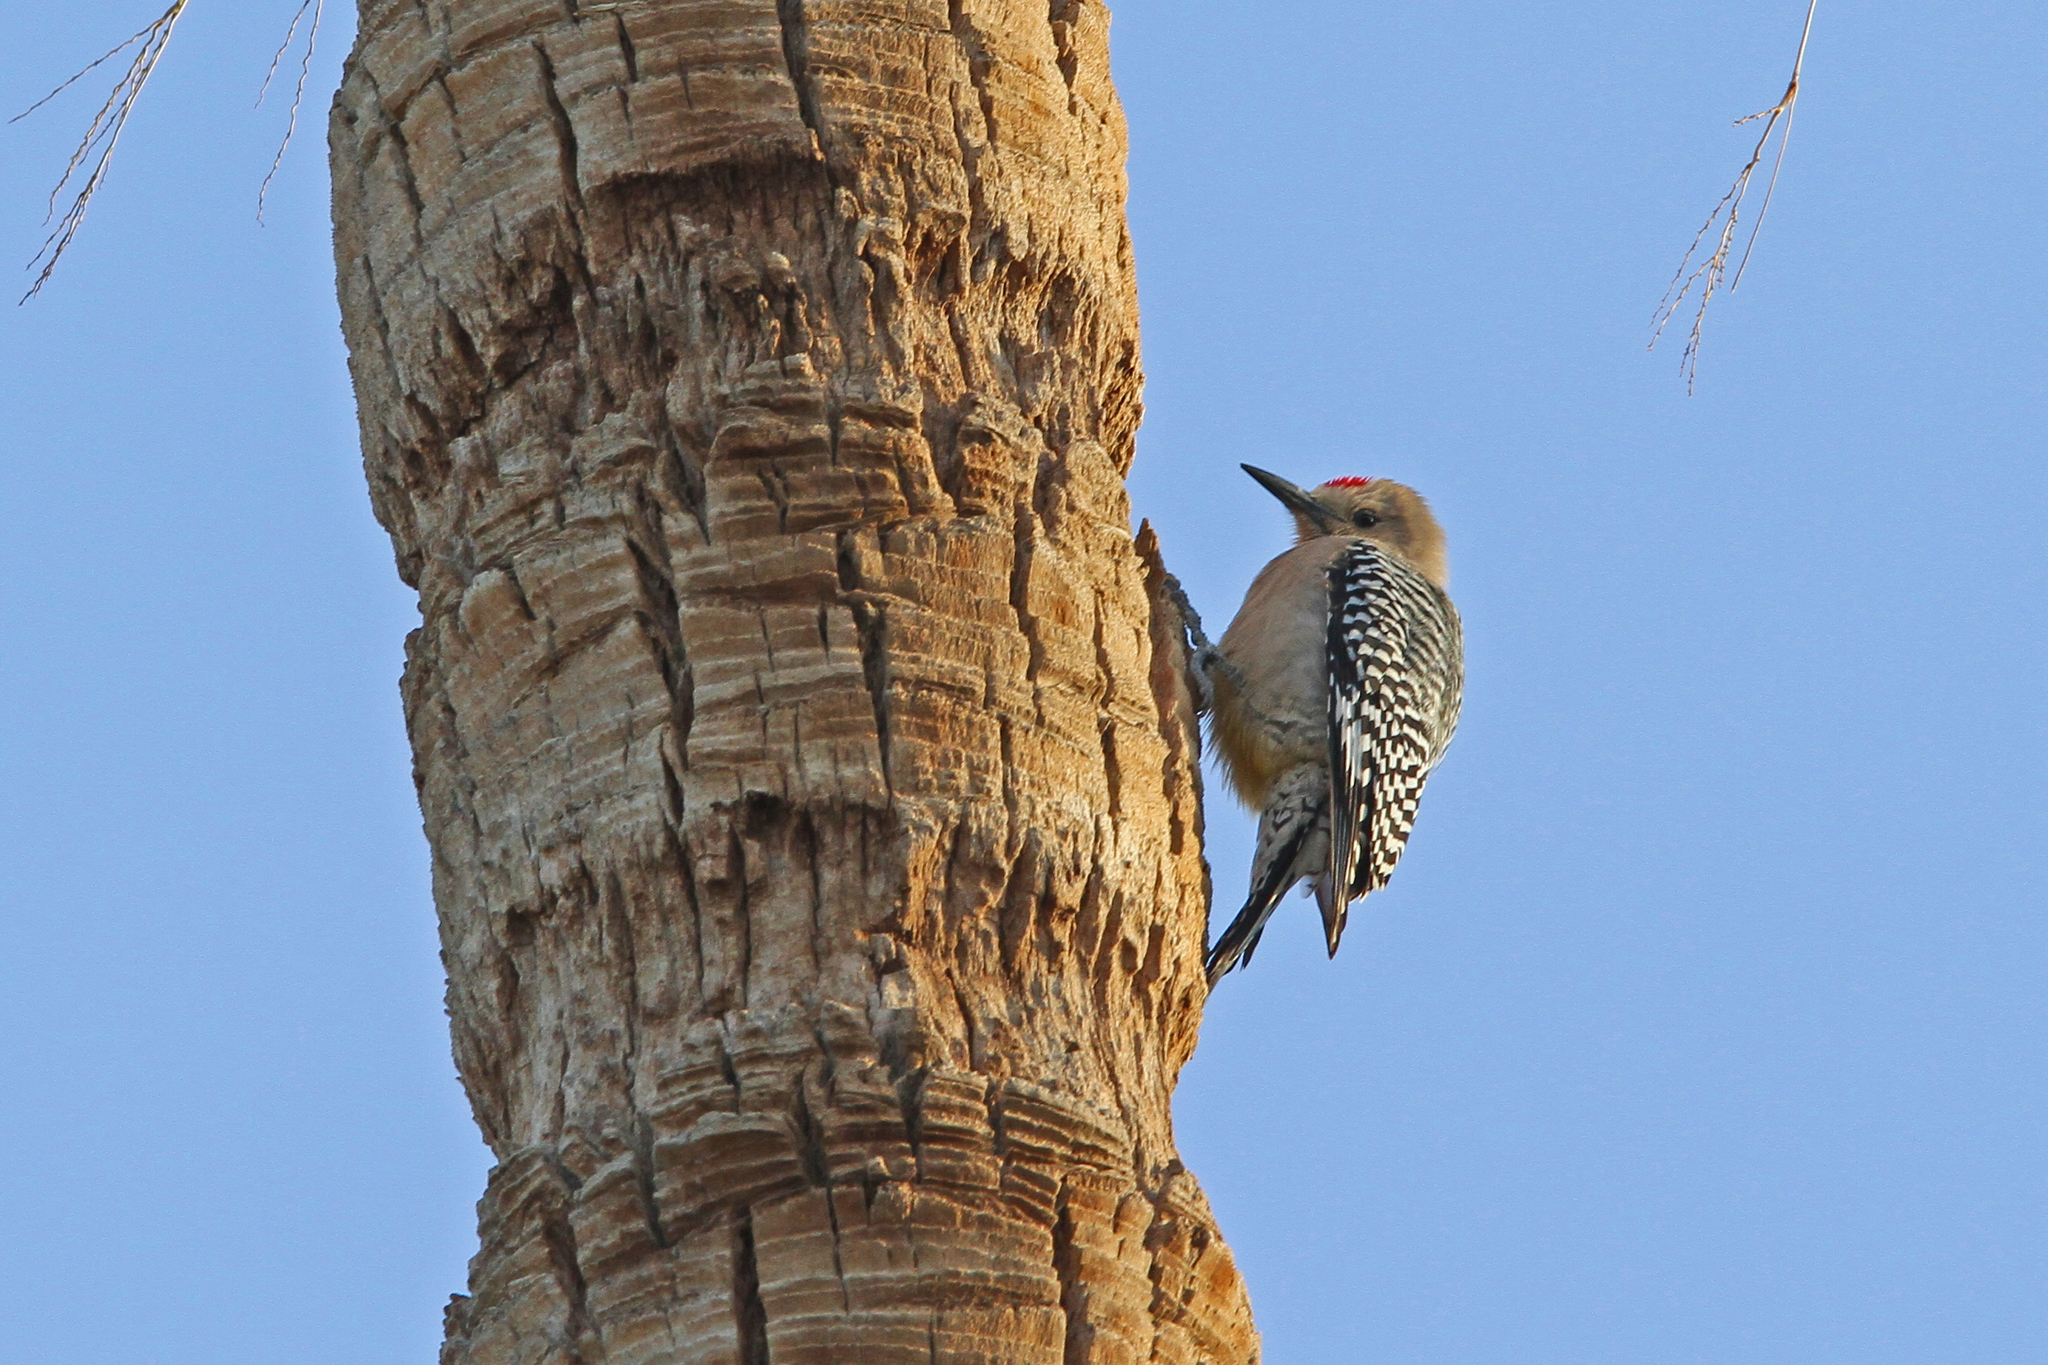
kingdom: Animalia
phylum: Chordata
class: Aves
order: Piciformes
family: Picidae
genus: Melanerpes
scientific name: Melanerpes uropygialis
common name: Gila woodpecker
